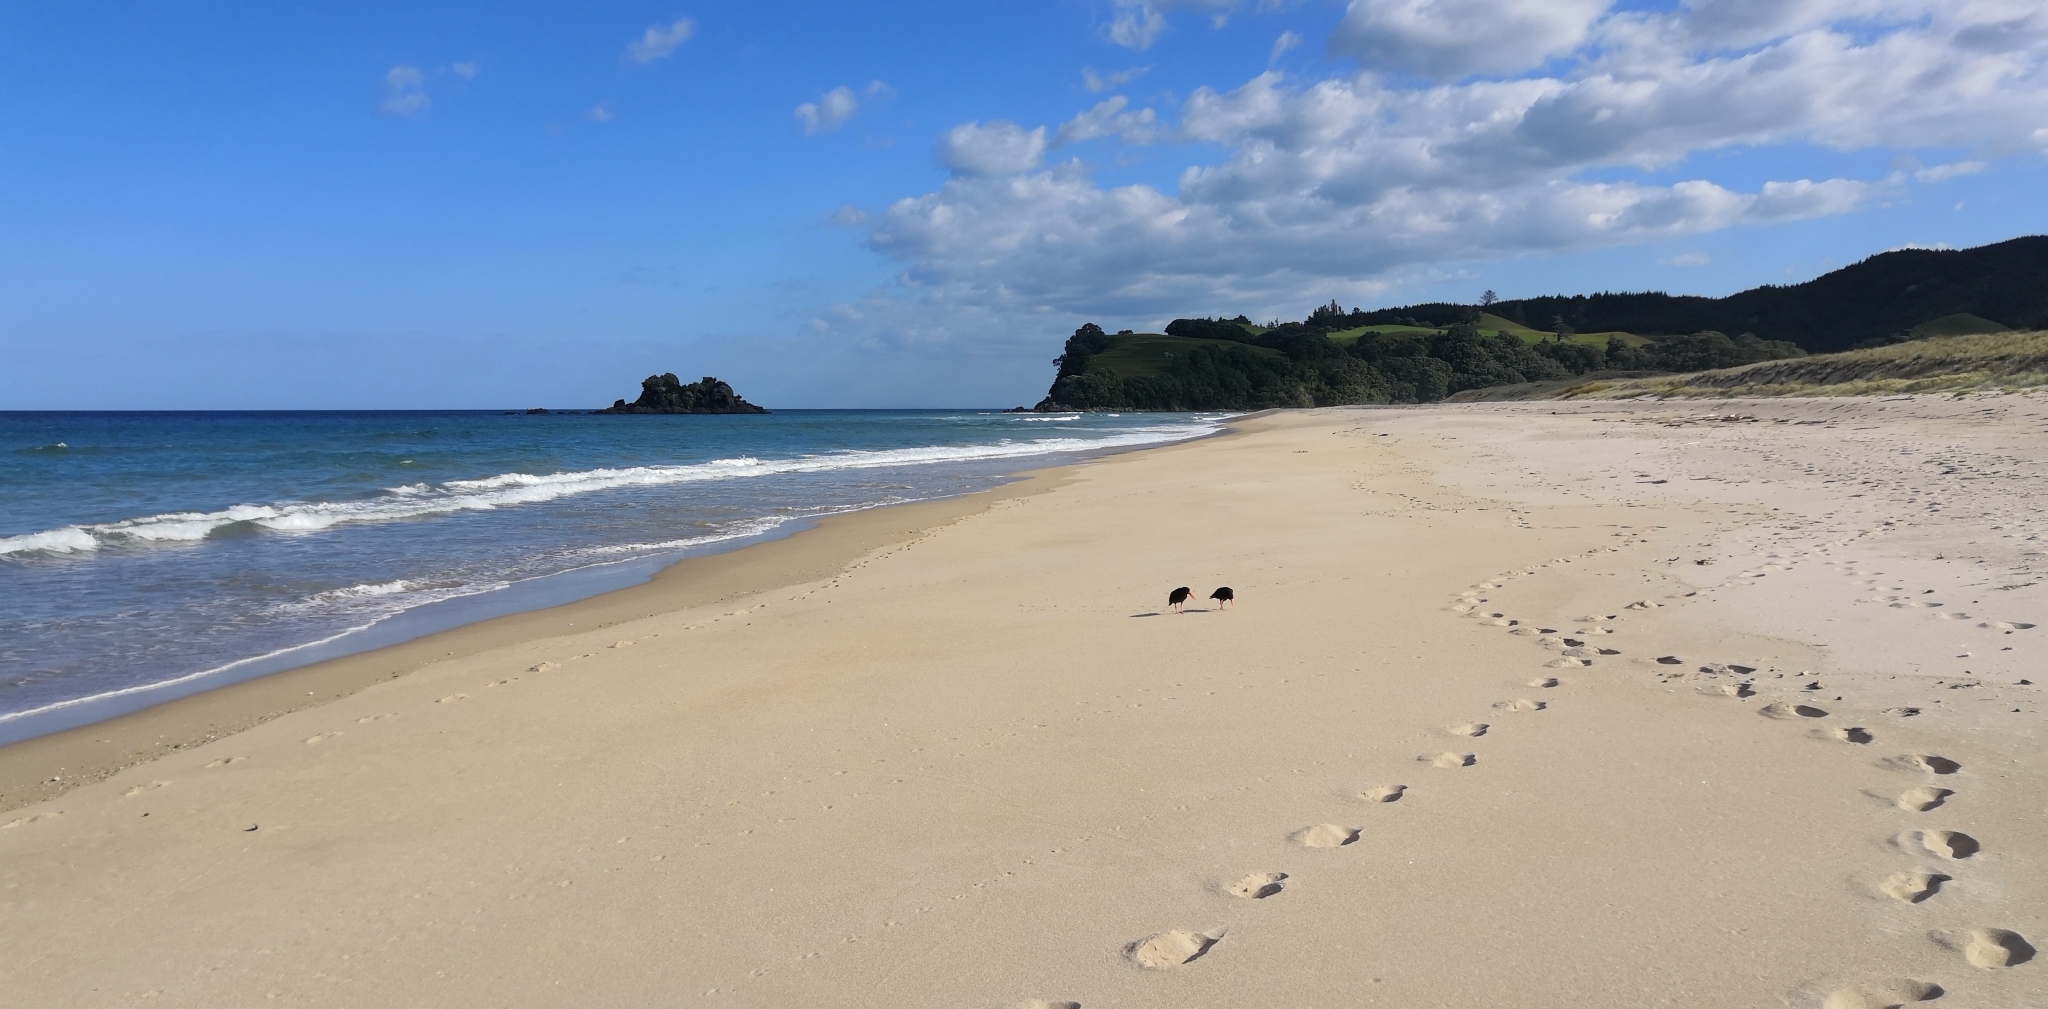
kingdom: Animalia
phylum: Chordata
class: Aves
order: Charadriiformes
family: Haematopodidae
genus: Haematopus
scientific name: Haematopus unicolor
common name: Variable oystercatcher
